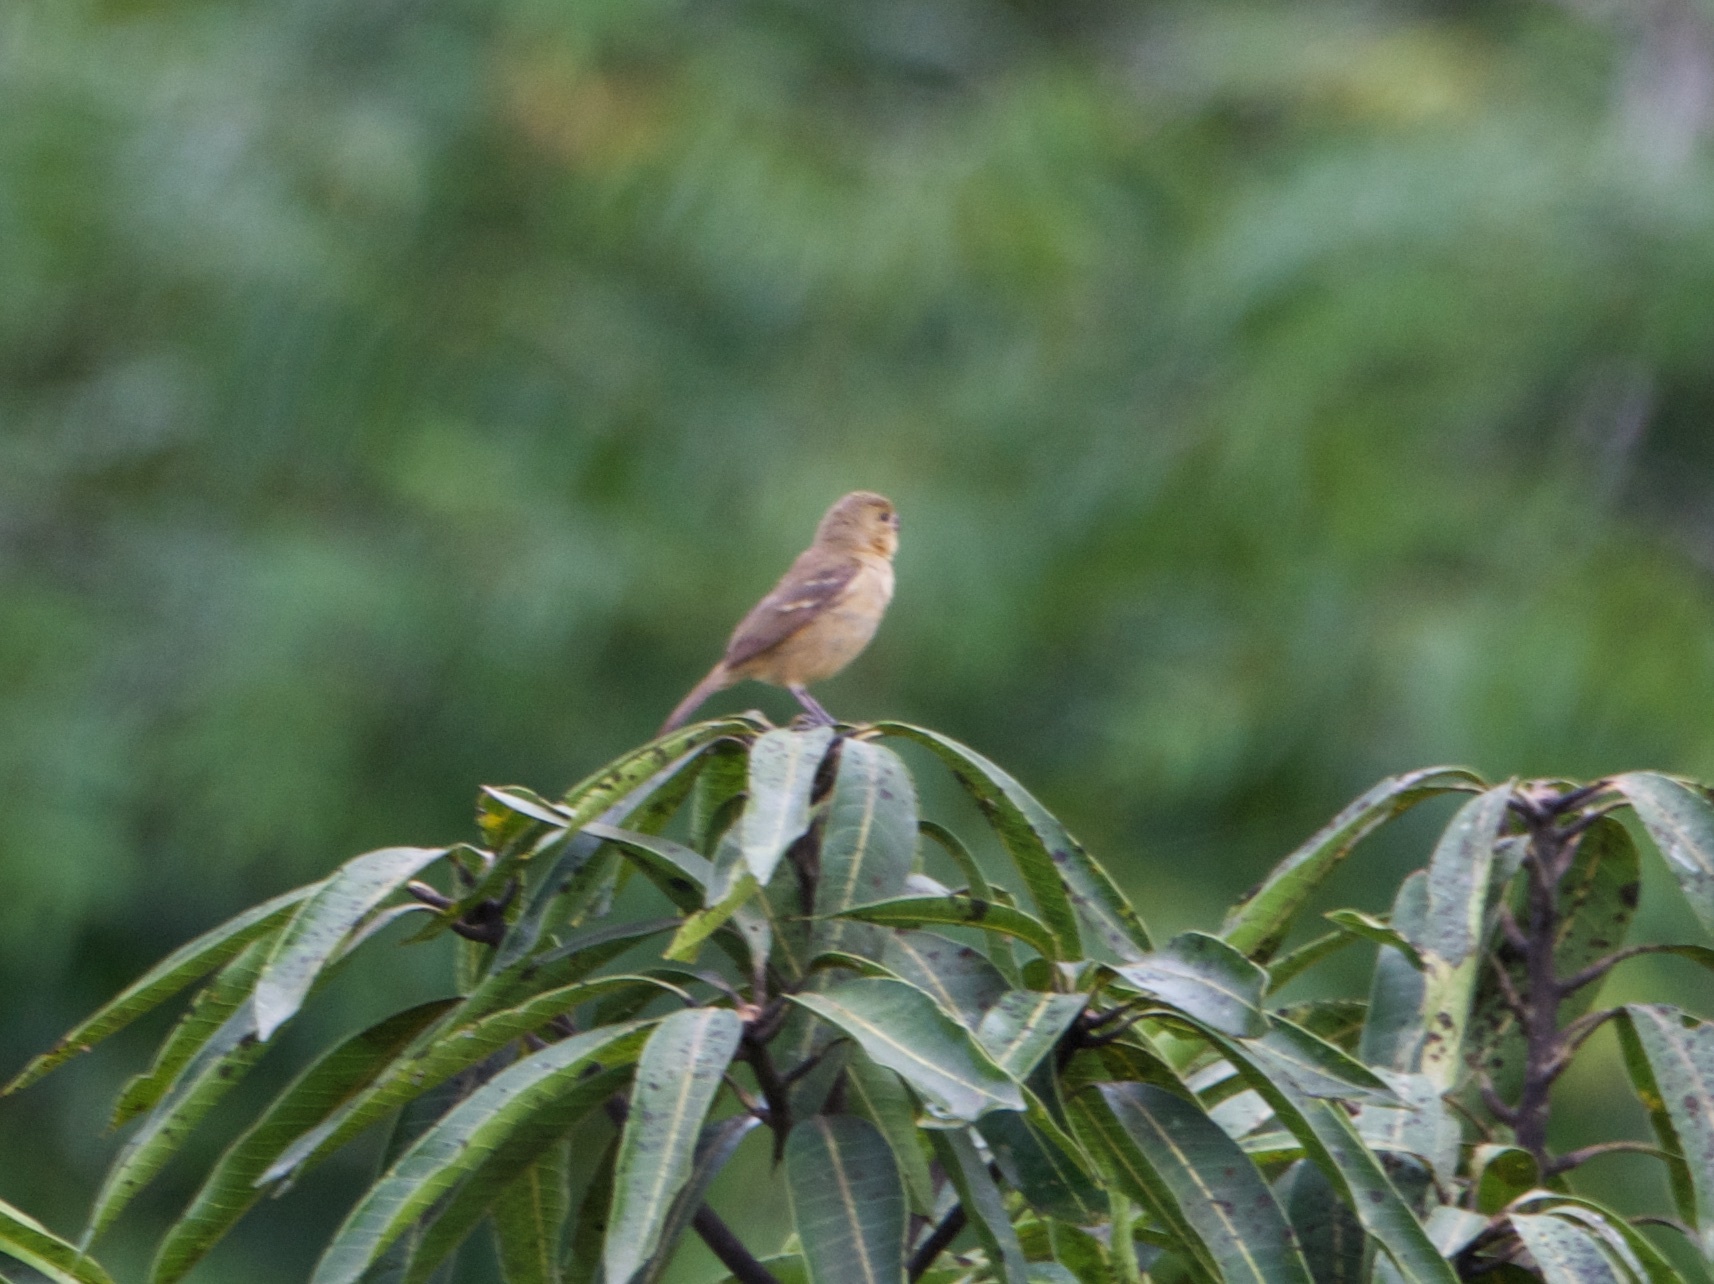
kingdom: Animalia
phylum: Chordata
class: Aves
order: Passeriformes
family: Thraupidae
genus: Sporophila
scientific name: Sporophila morelleti
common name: Morelet's seedeater
